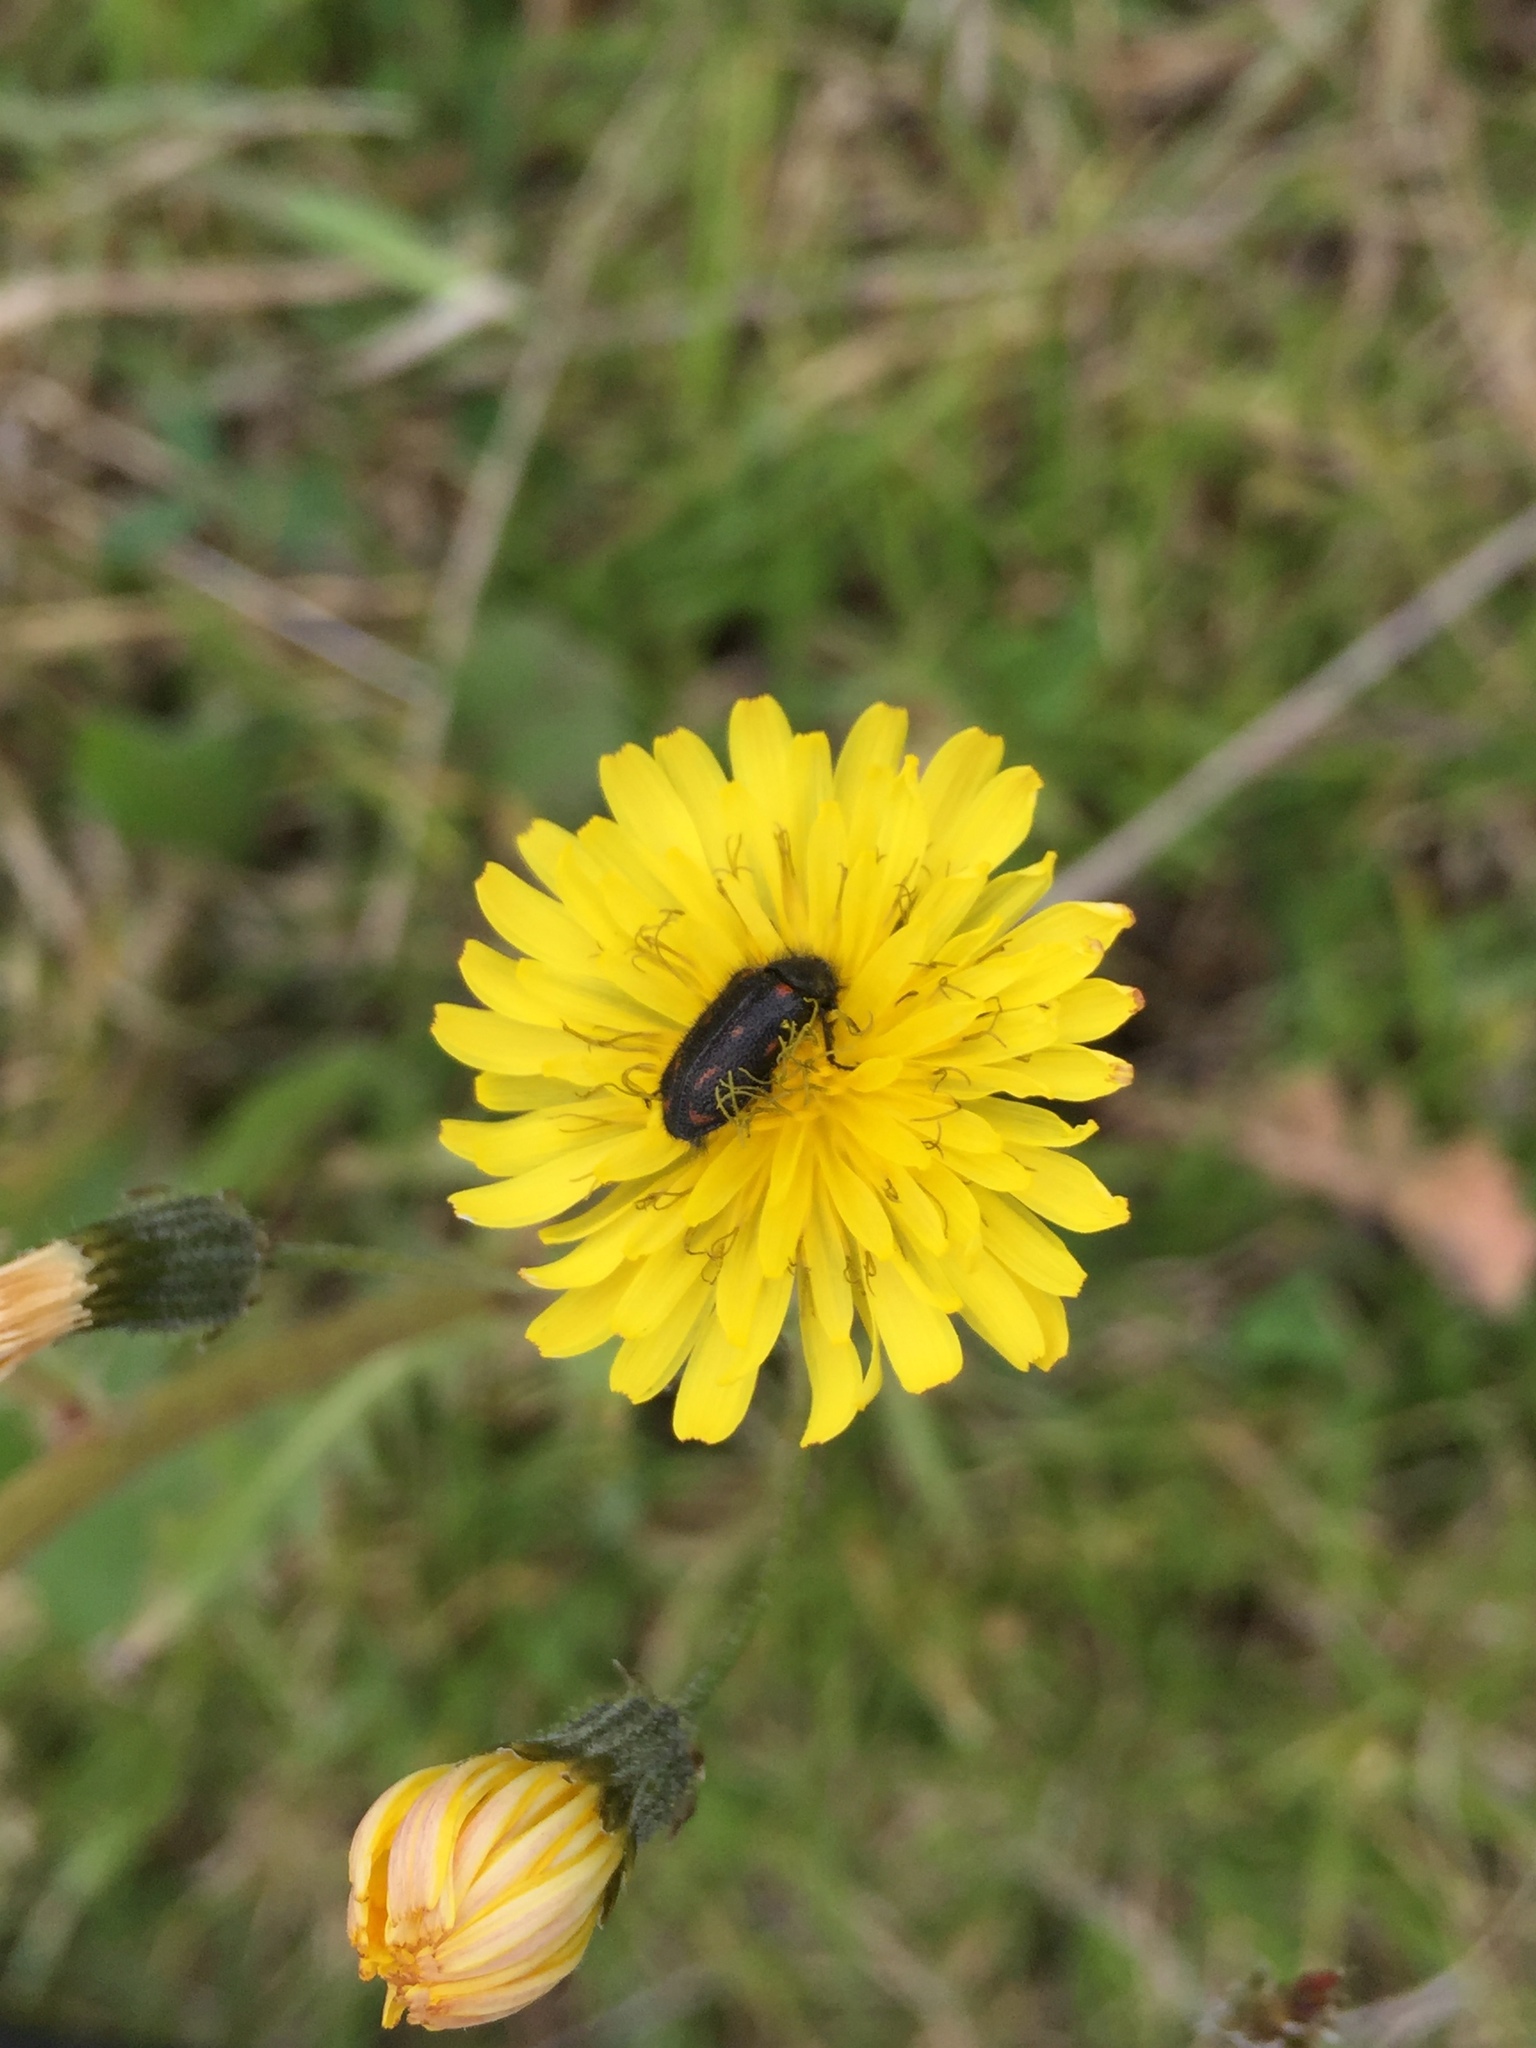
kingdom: Animalia
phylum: Arthropoda
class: Insecta
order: Coleoptera
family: Melyridae
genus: Astylus
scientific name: Astylus
